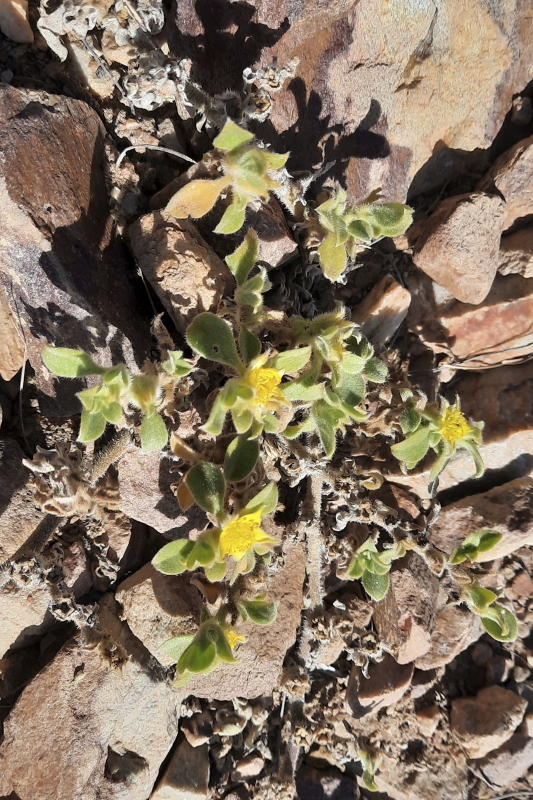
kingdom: Plantae
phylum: Tracheophyta
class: Magnoliopsida
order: Caryophyllales
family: Aizoaceae
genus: Aizoon
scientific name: Aizoon glinoides
